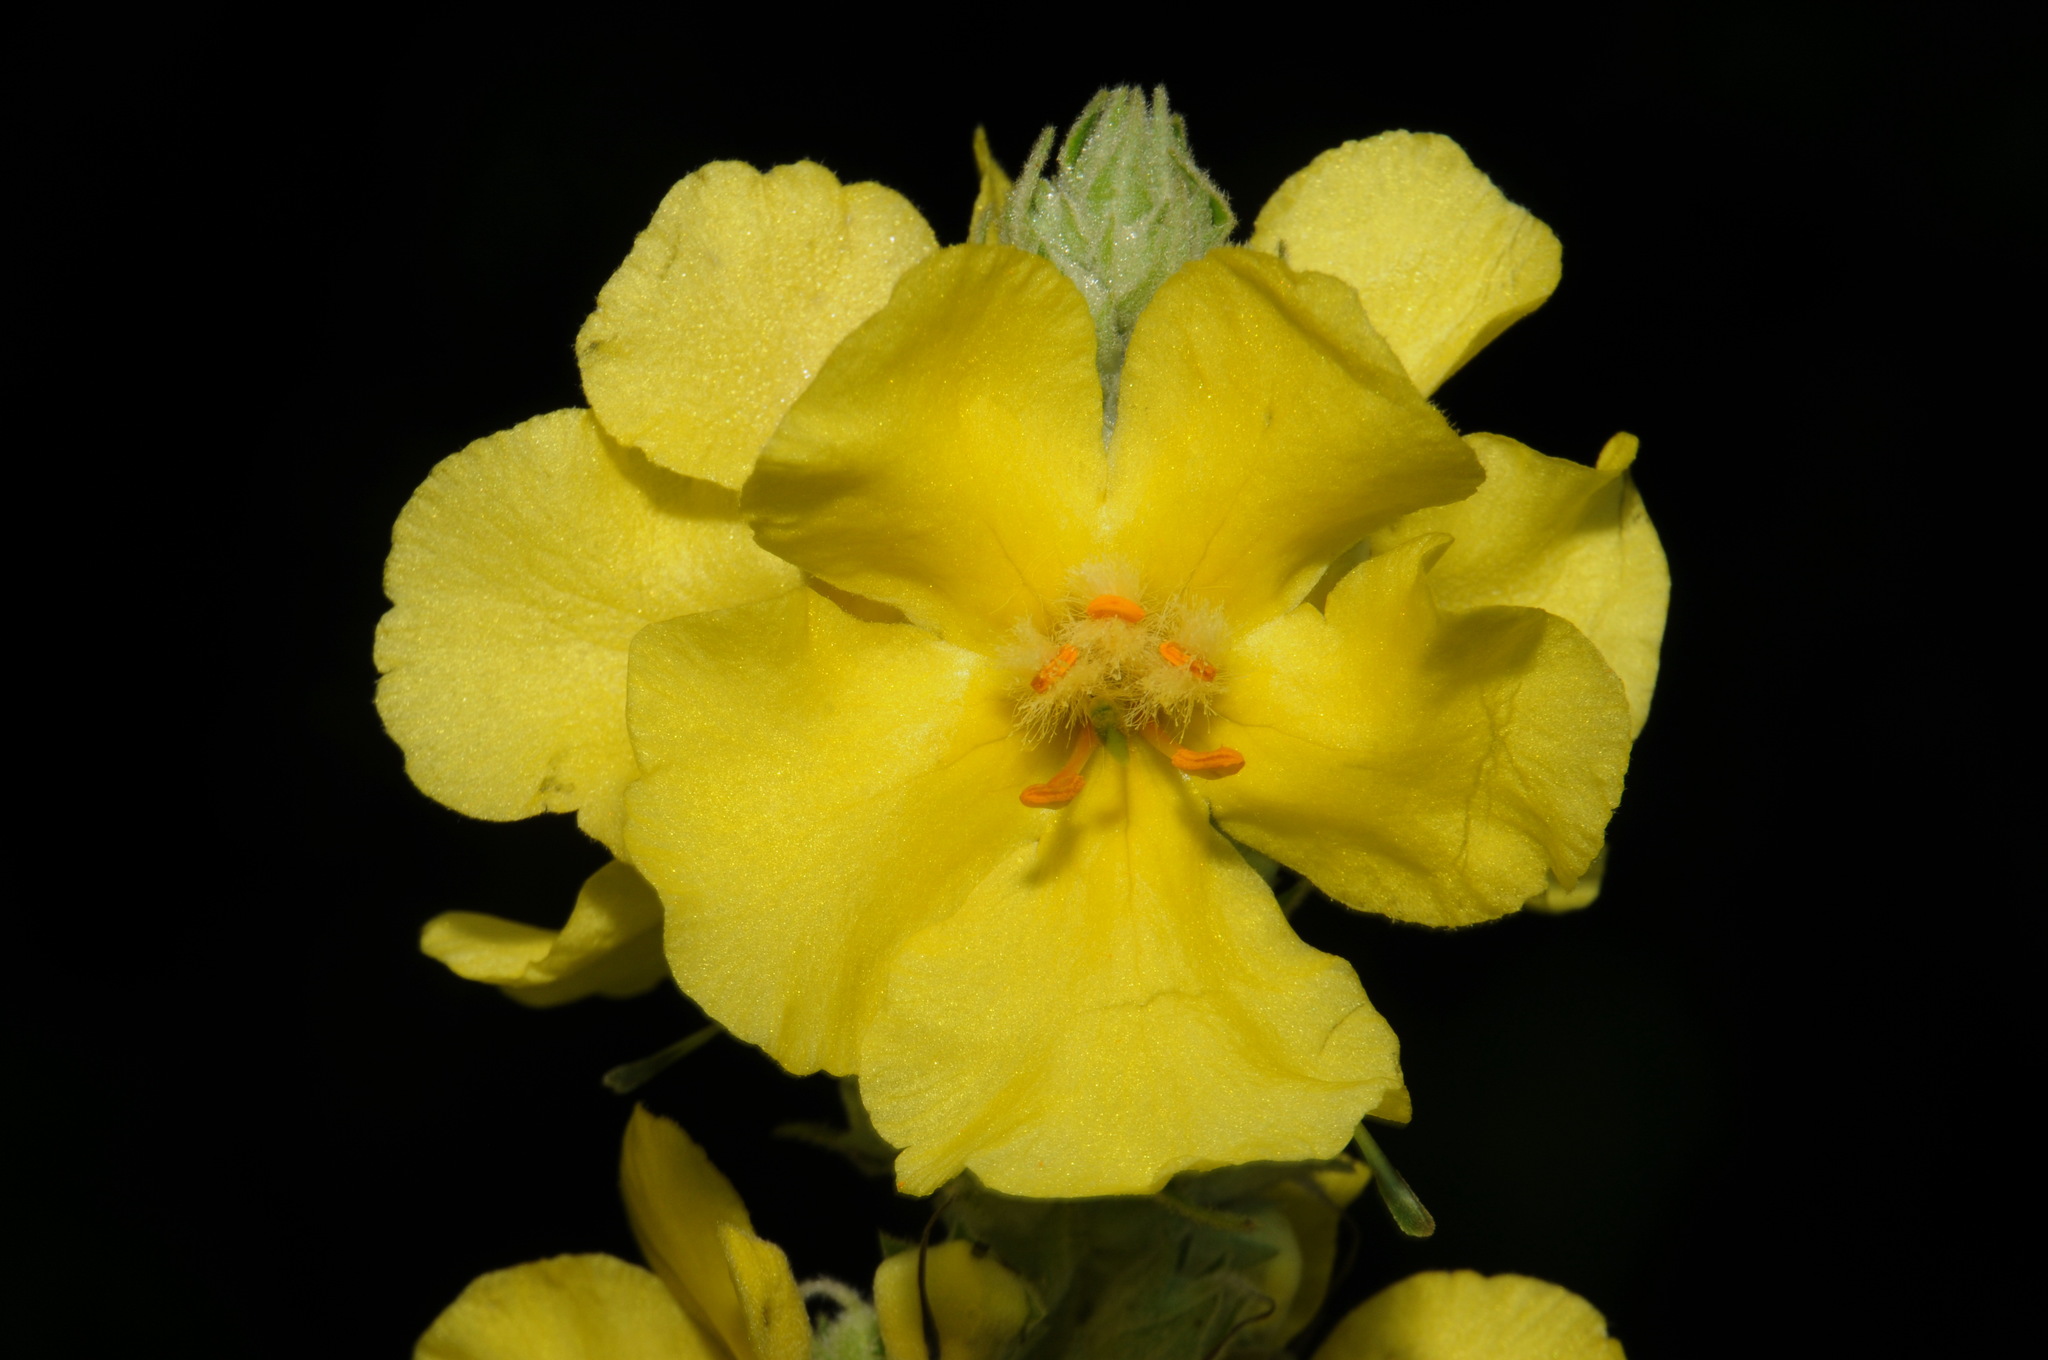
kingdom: Plantae
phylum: Tracheophyta
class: Magnoliopsida
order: Lamiales
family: Scrophulariaceae
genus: Verbascum
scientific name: Verbascum phlomoides
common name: Orange mullein
